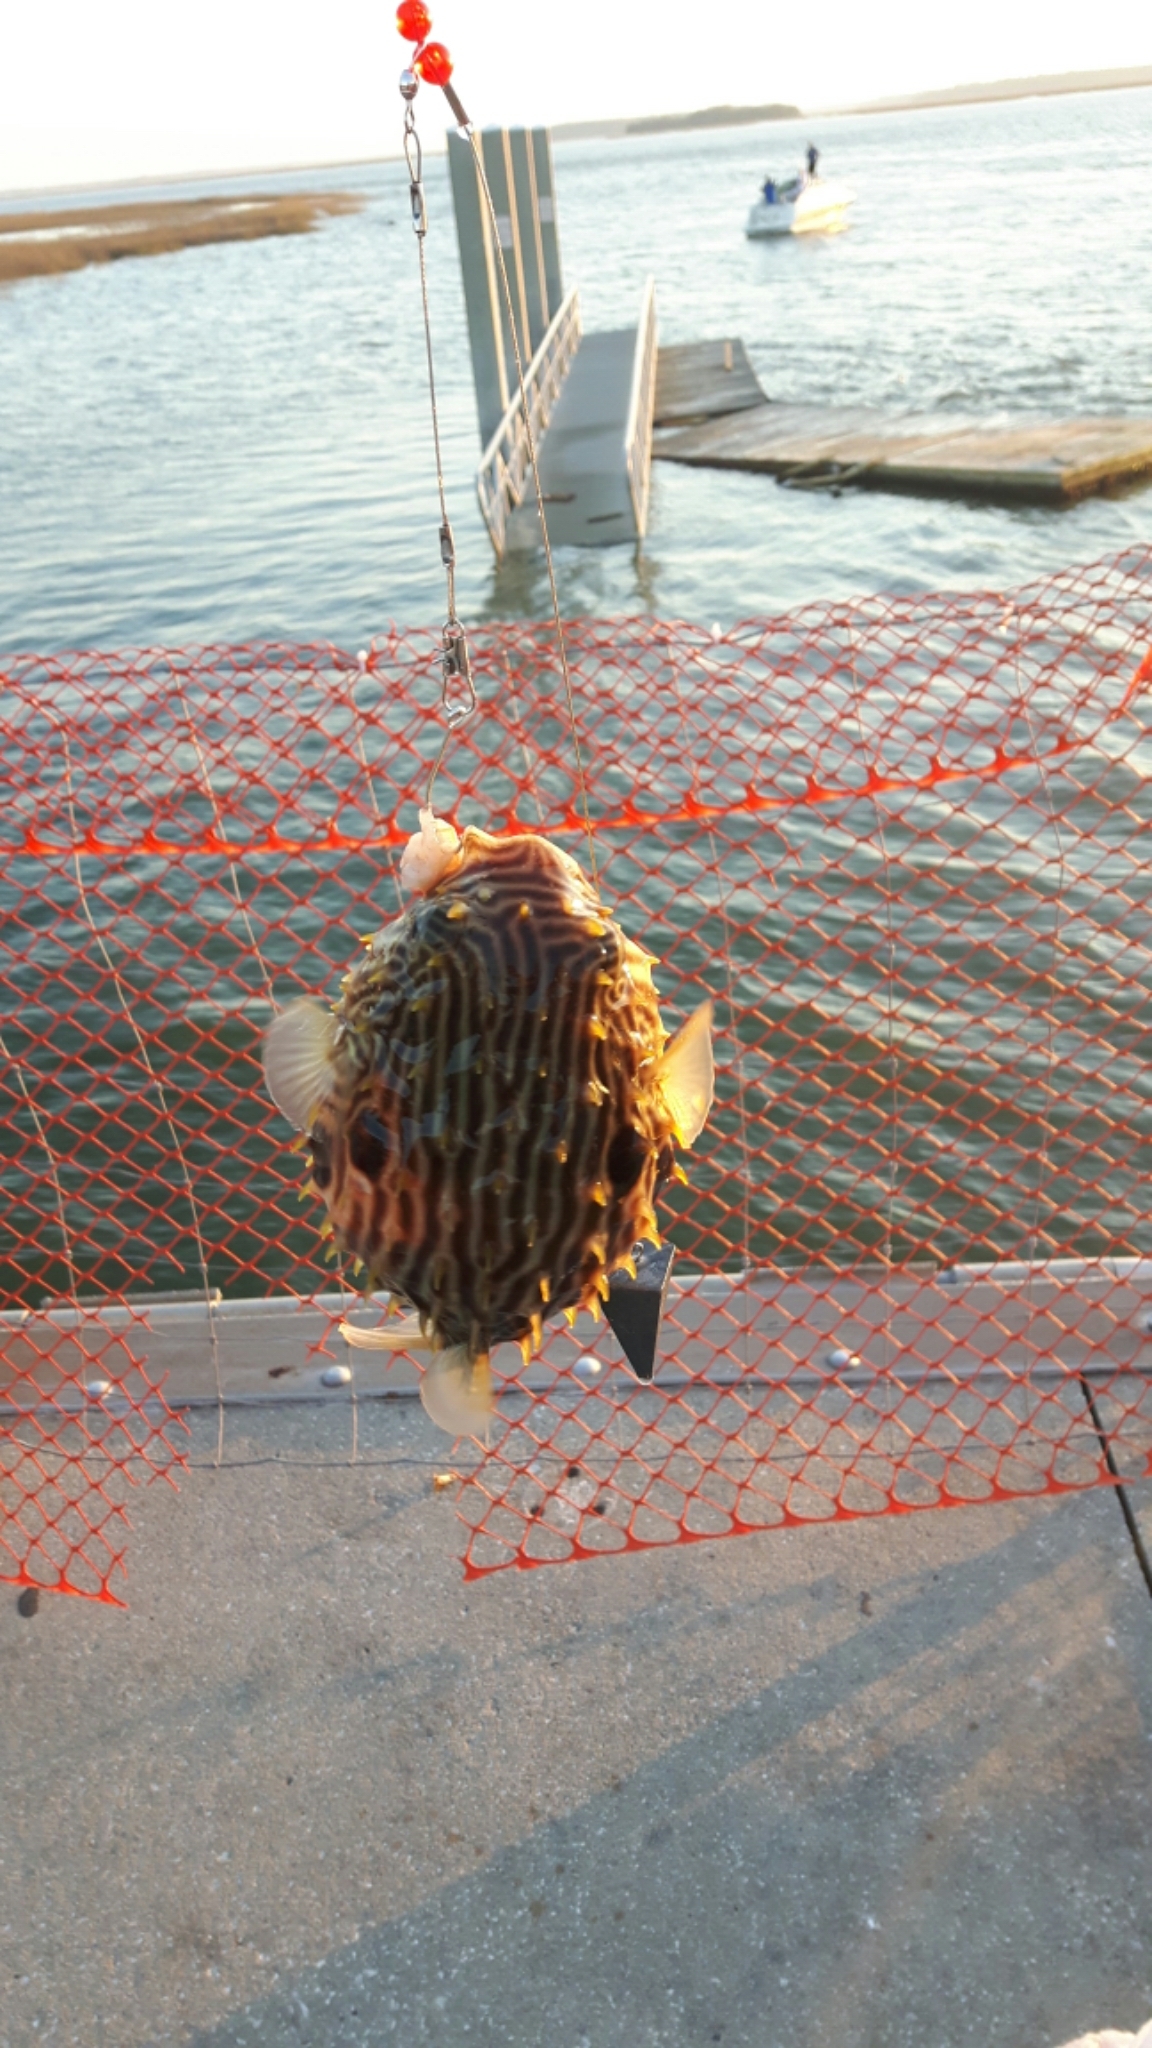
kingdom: Animalia
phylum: Chordata
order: Tetraodontiformes
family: Diodontidae
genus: Chilomycterus
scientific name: Chilomycterus schoepfii
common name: Striped burrfish
